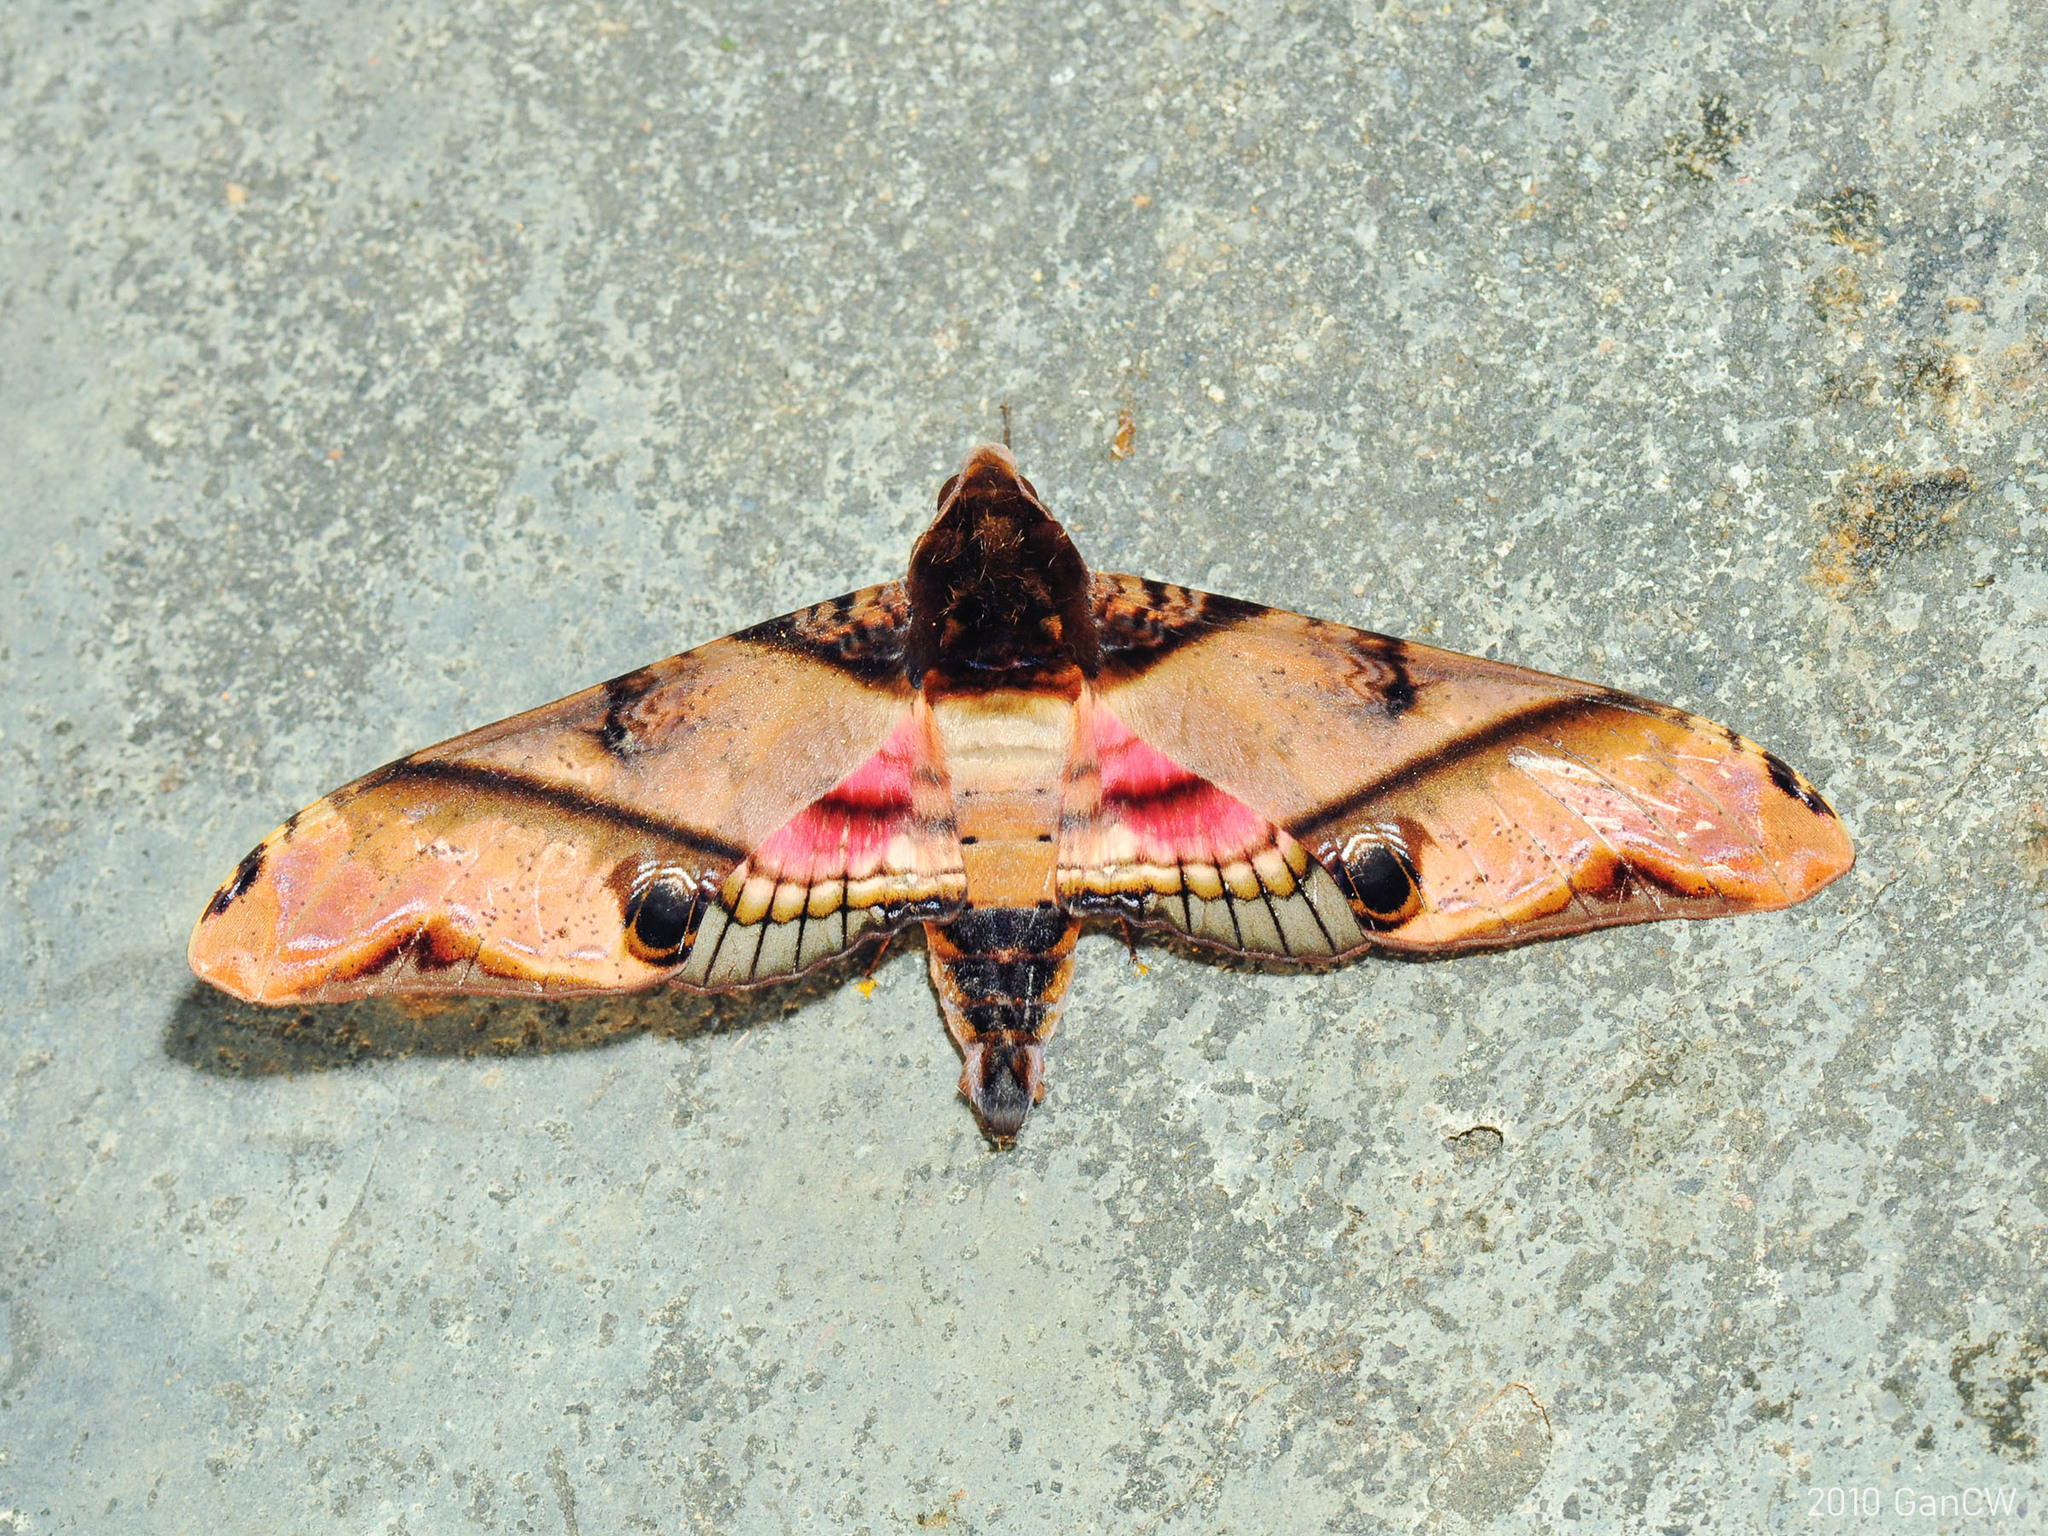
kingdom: Animalia
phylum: Arthropoda
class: Insecta
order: Lepidoptera
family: Sphingidae
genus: Amplypterus
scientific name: Amplypterus panopus
